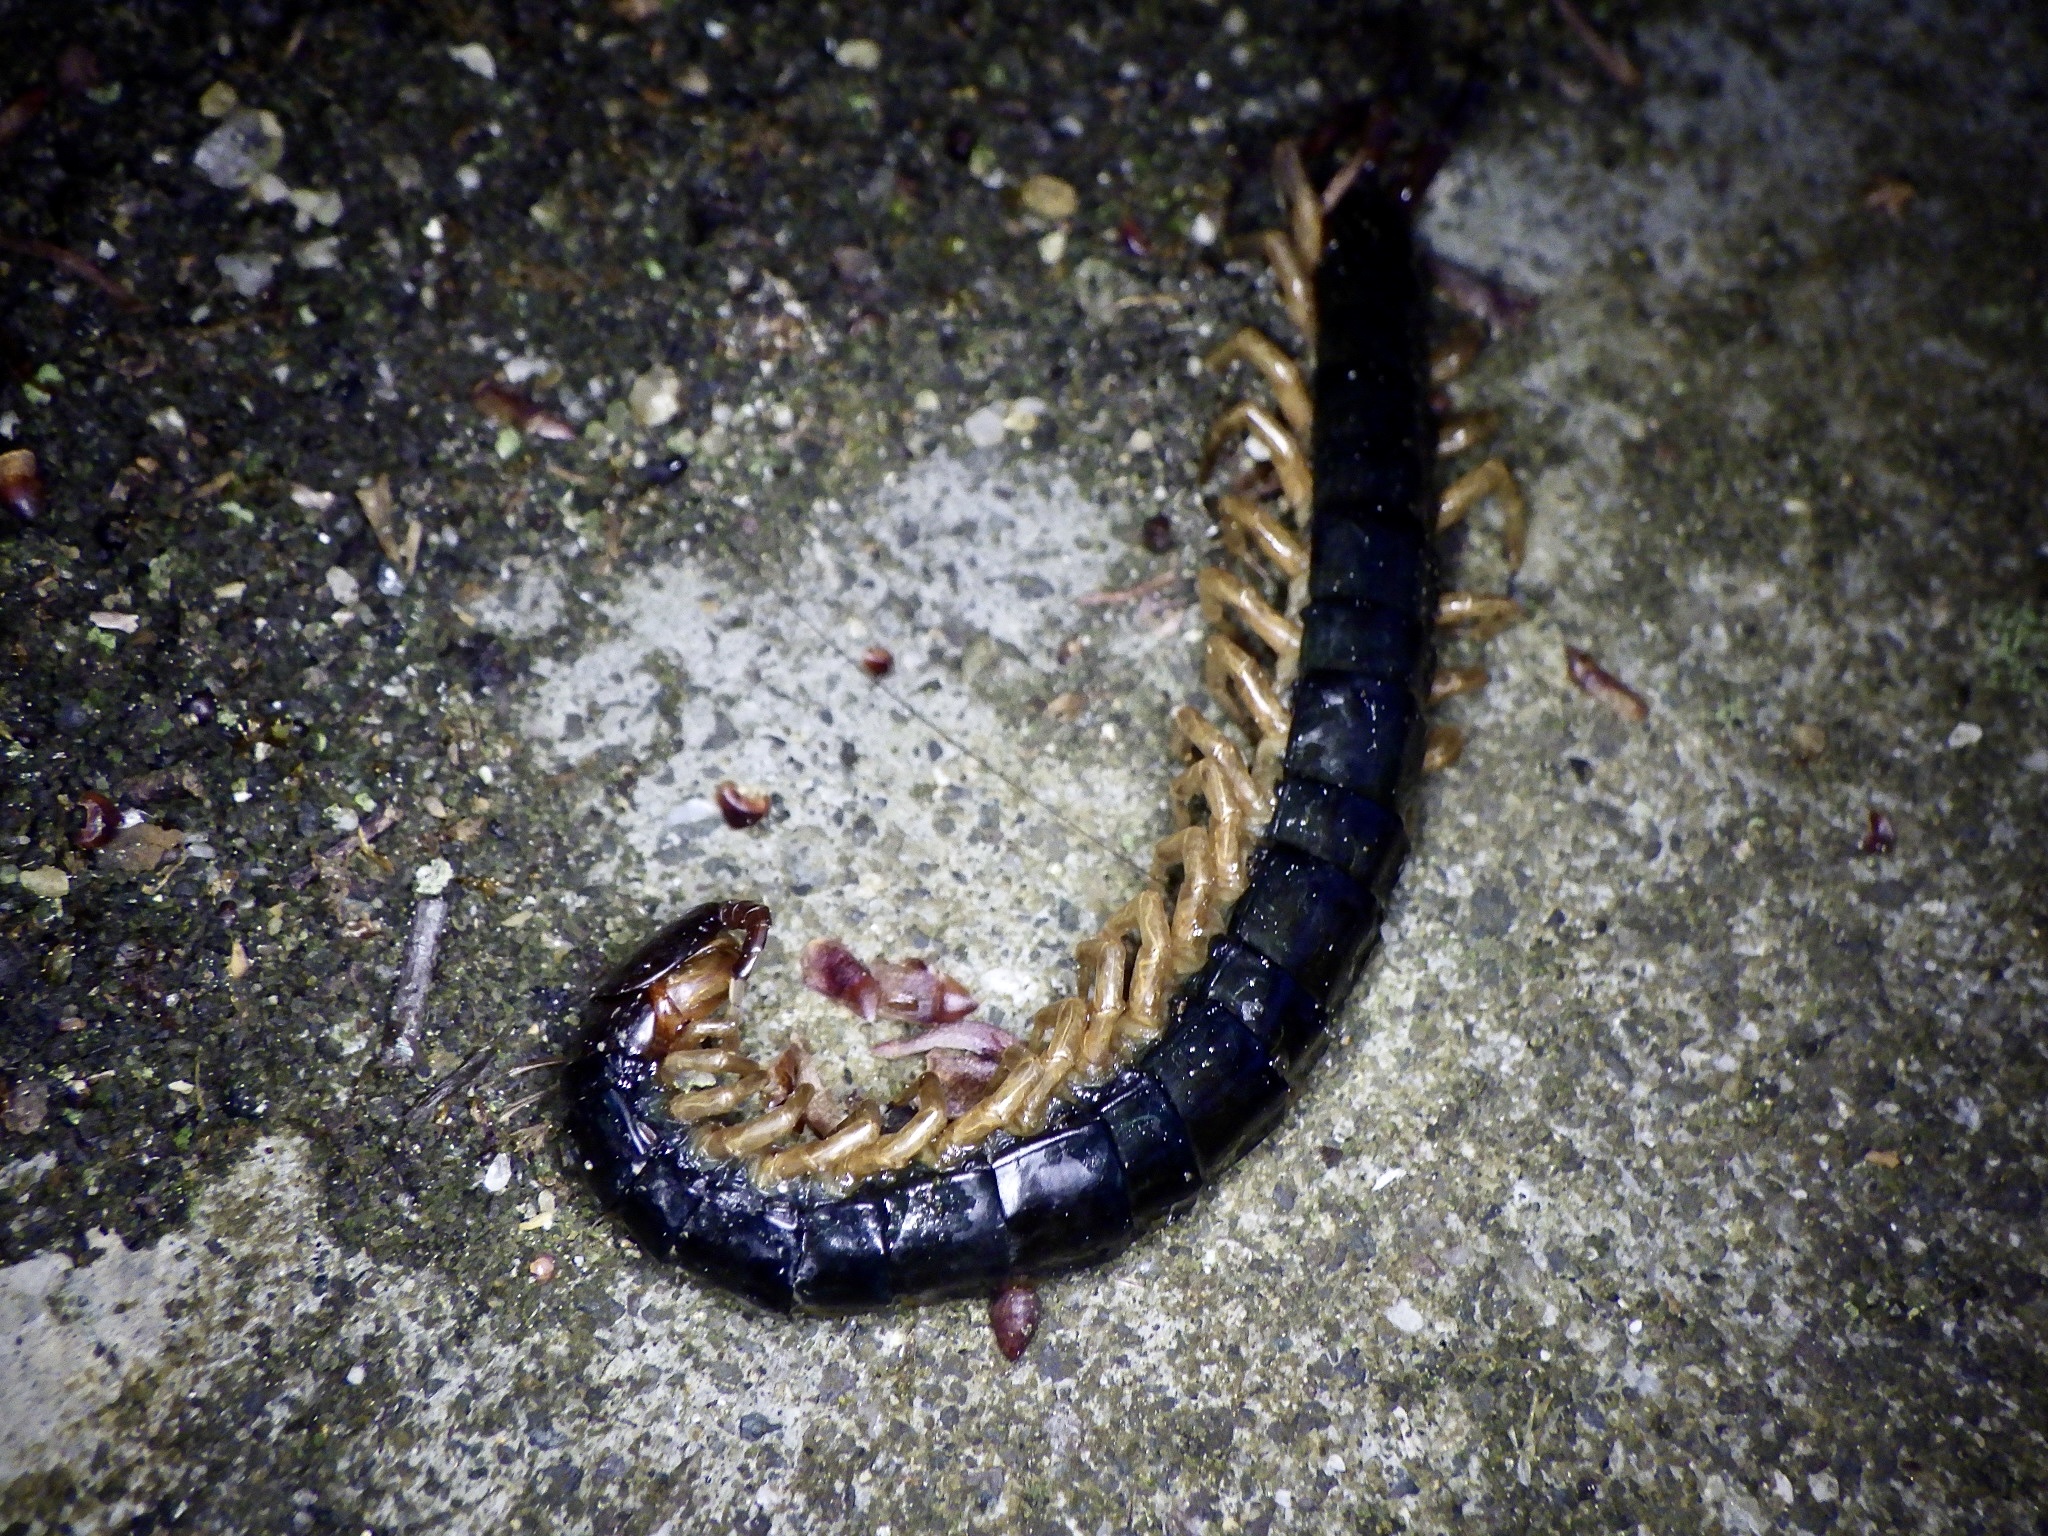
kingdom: Animalia
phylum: Arthropoda
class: Chilopoda
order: Scolopendromorpha
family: Scolopendridae
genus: Scolopendra
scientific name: Scolopendra mutilans
